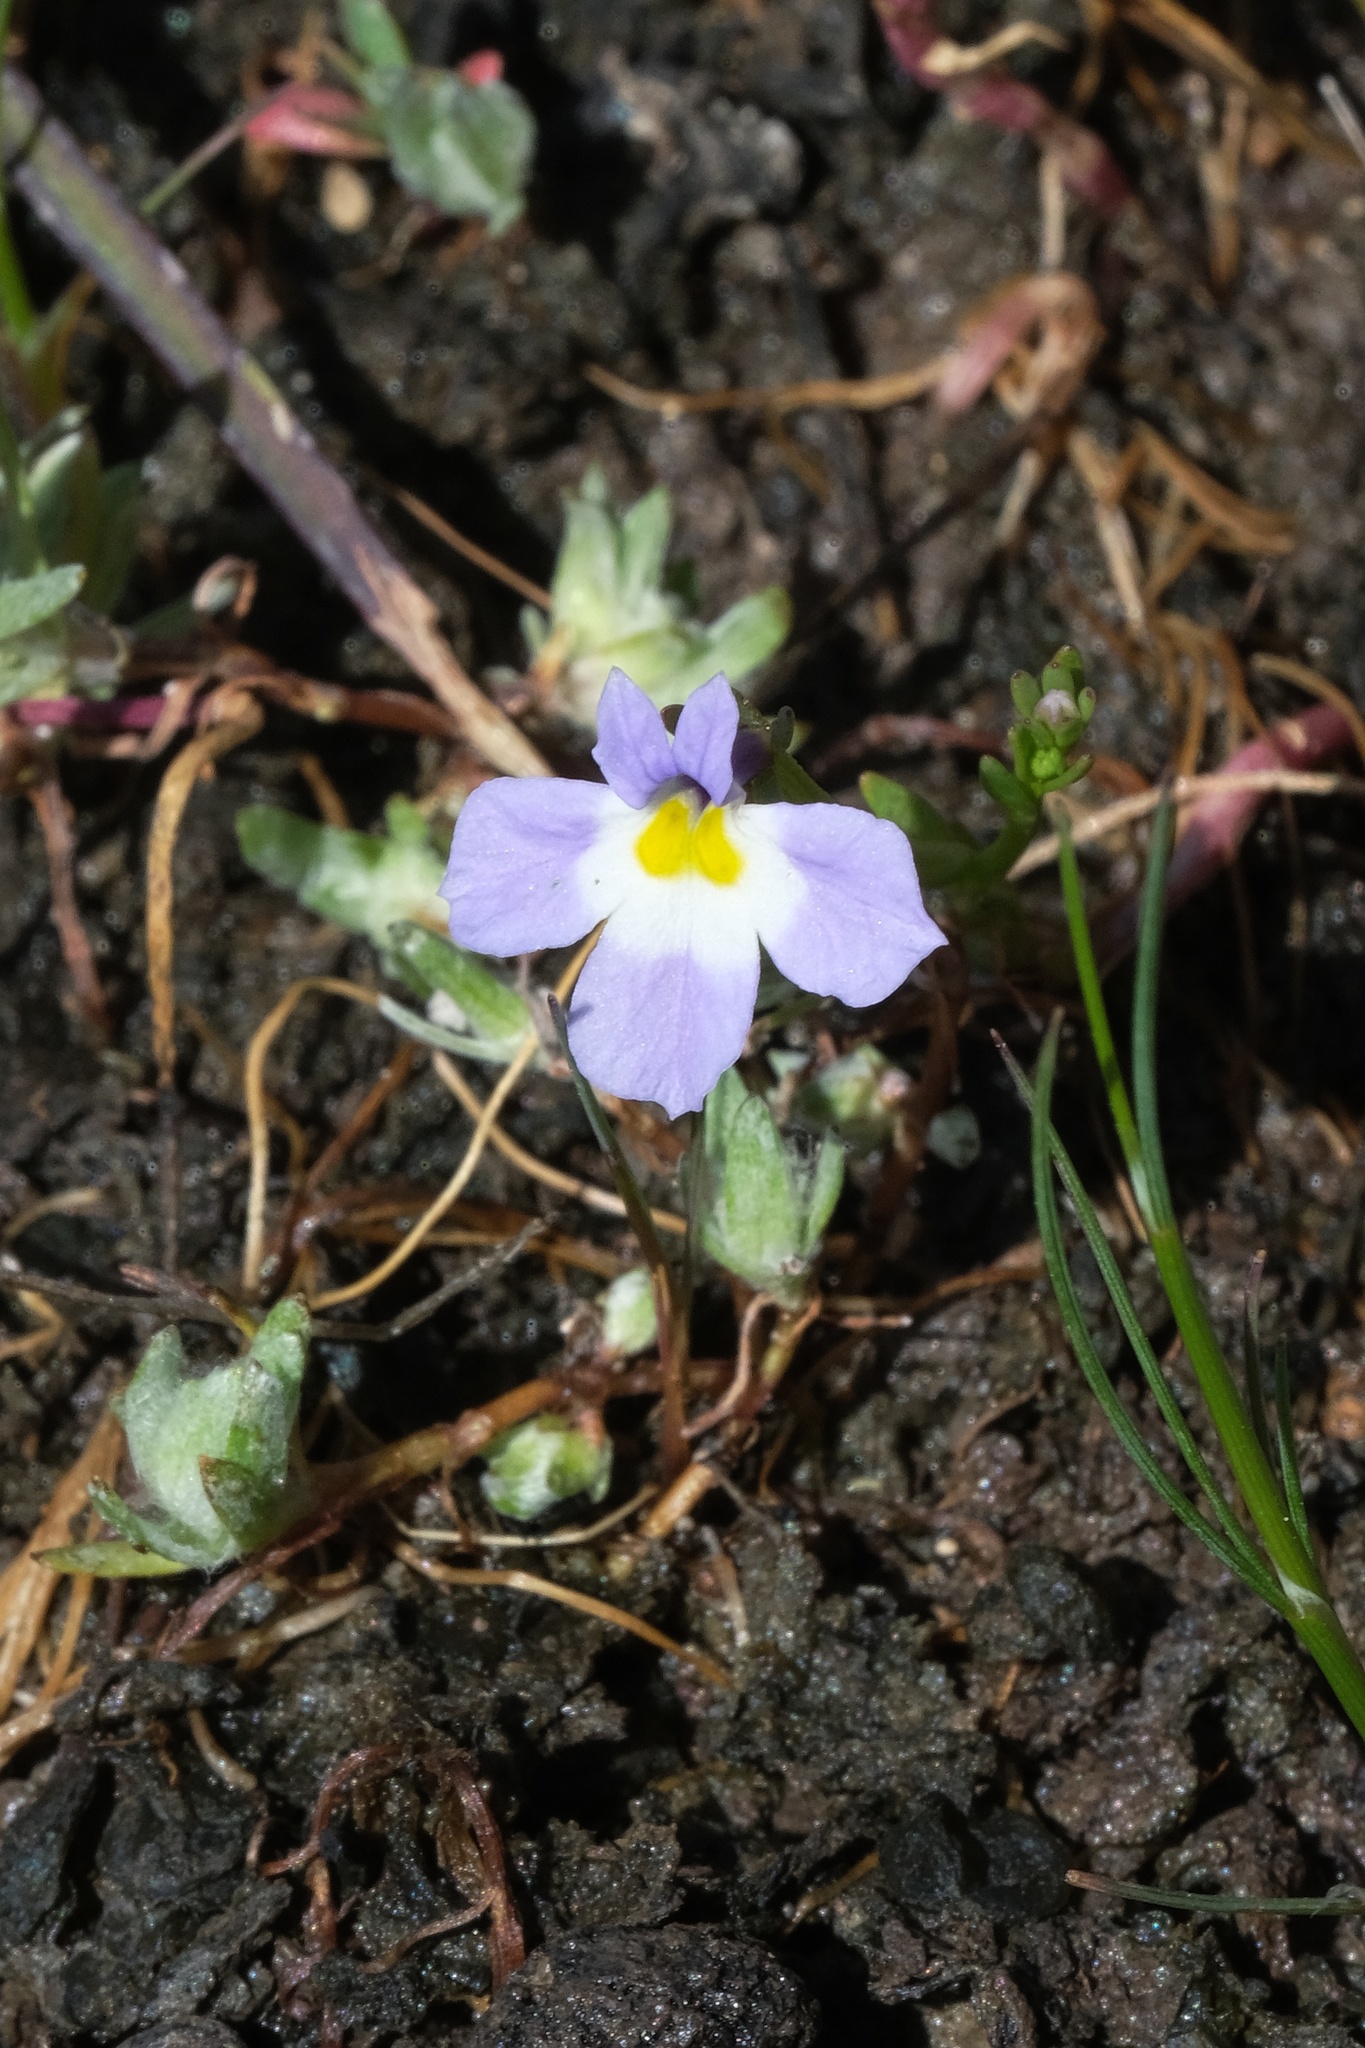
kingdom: Plantae
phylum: Tracheophyta
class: Magnoliopsida
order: Asterales
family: Campanulaceae
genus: Downingia
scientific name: Downingia cuspidata
